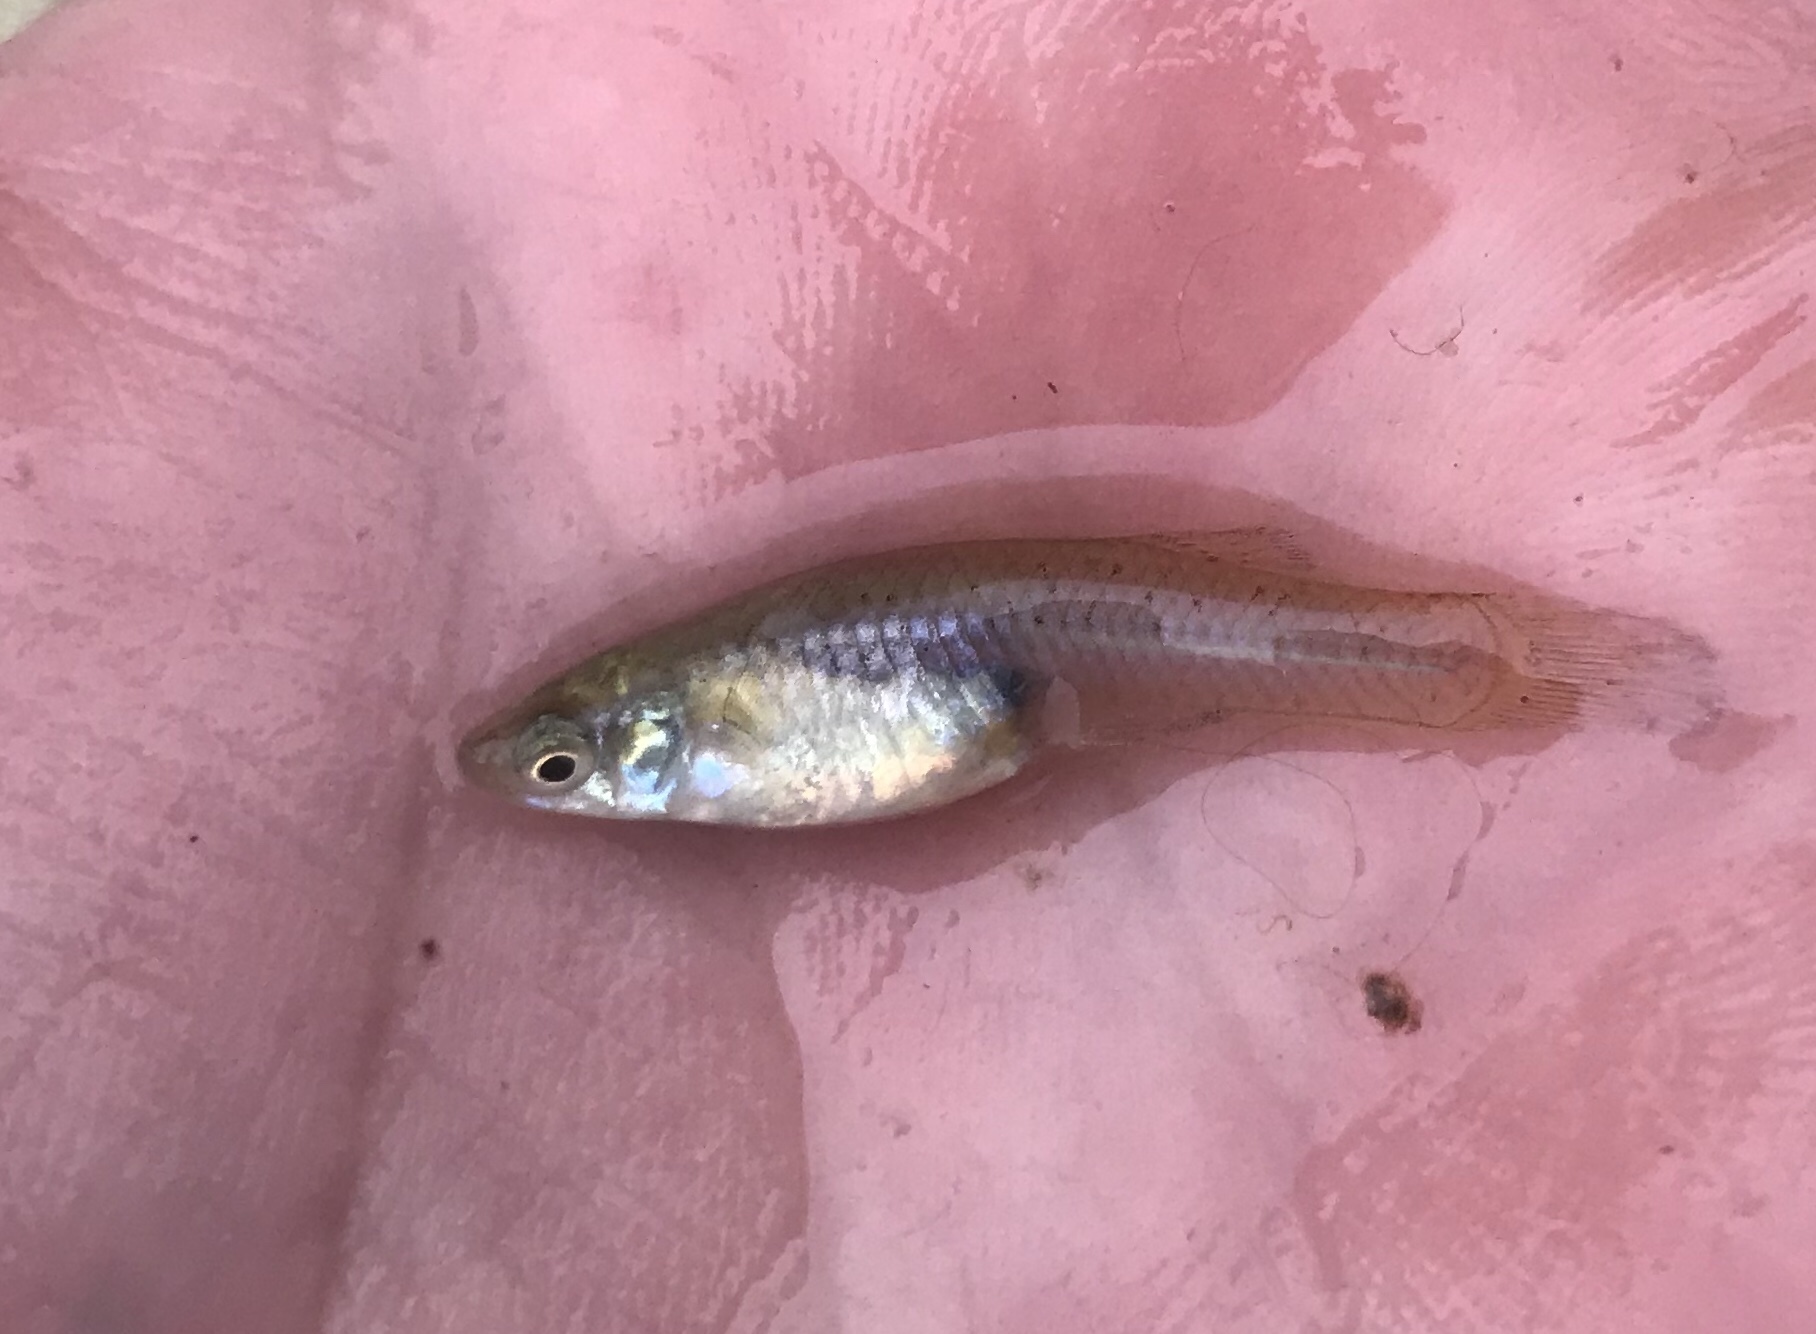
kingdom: Animalia
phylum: Chordata
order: Cyprinodontiformes
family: Poeciliidae
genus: Gambusia
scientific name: Gambusia affinis
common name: Mosquitofish
